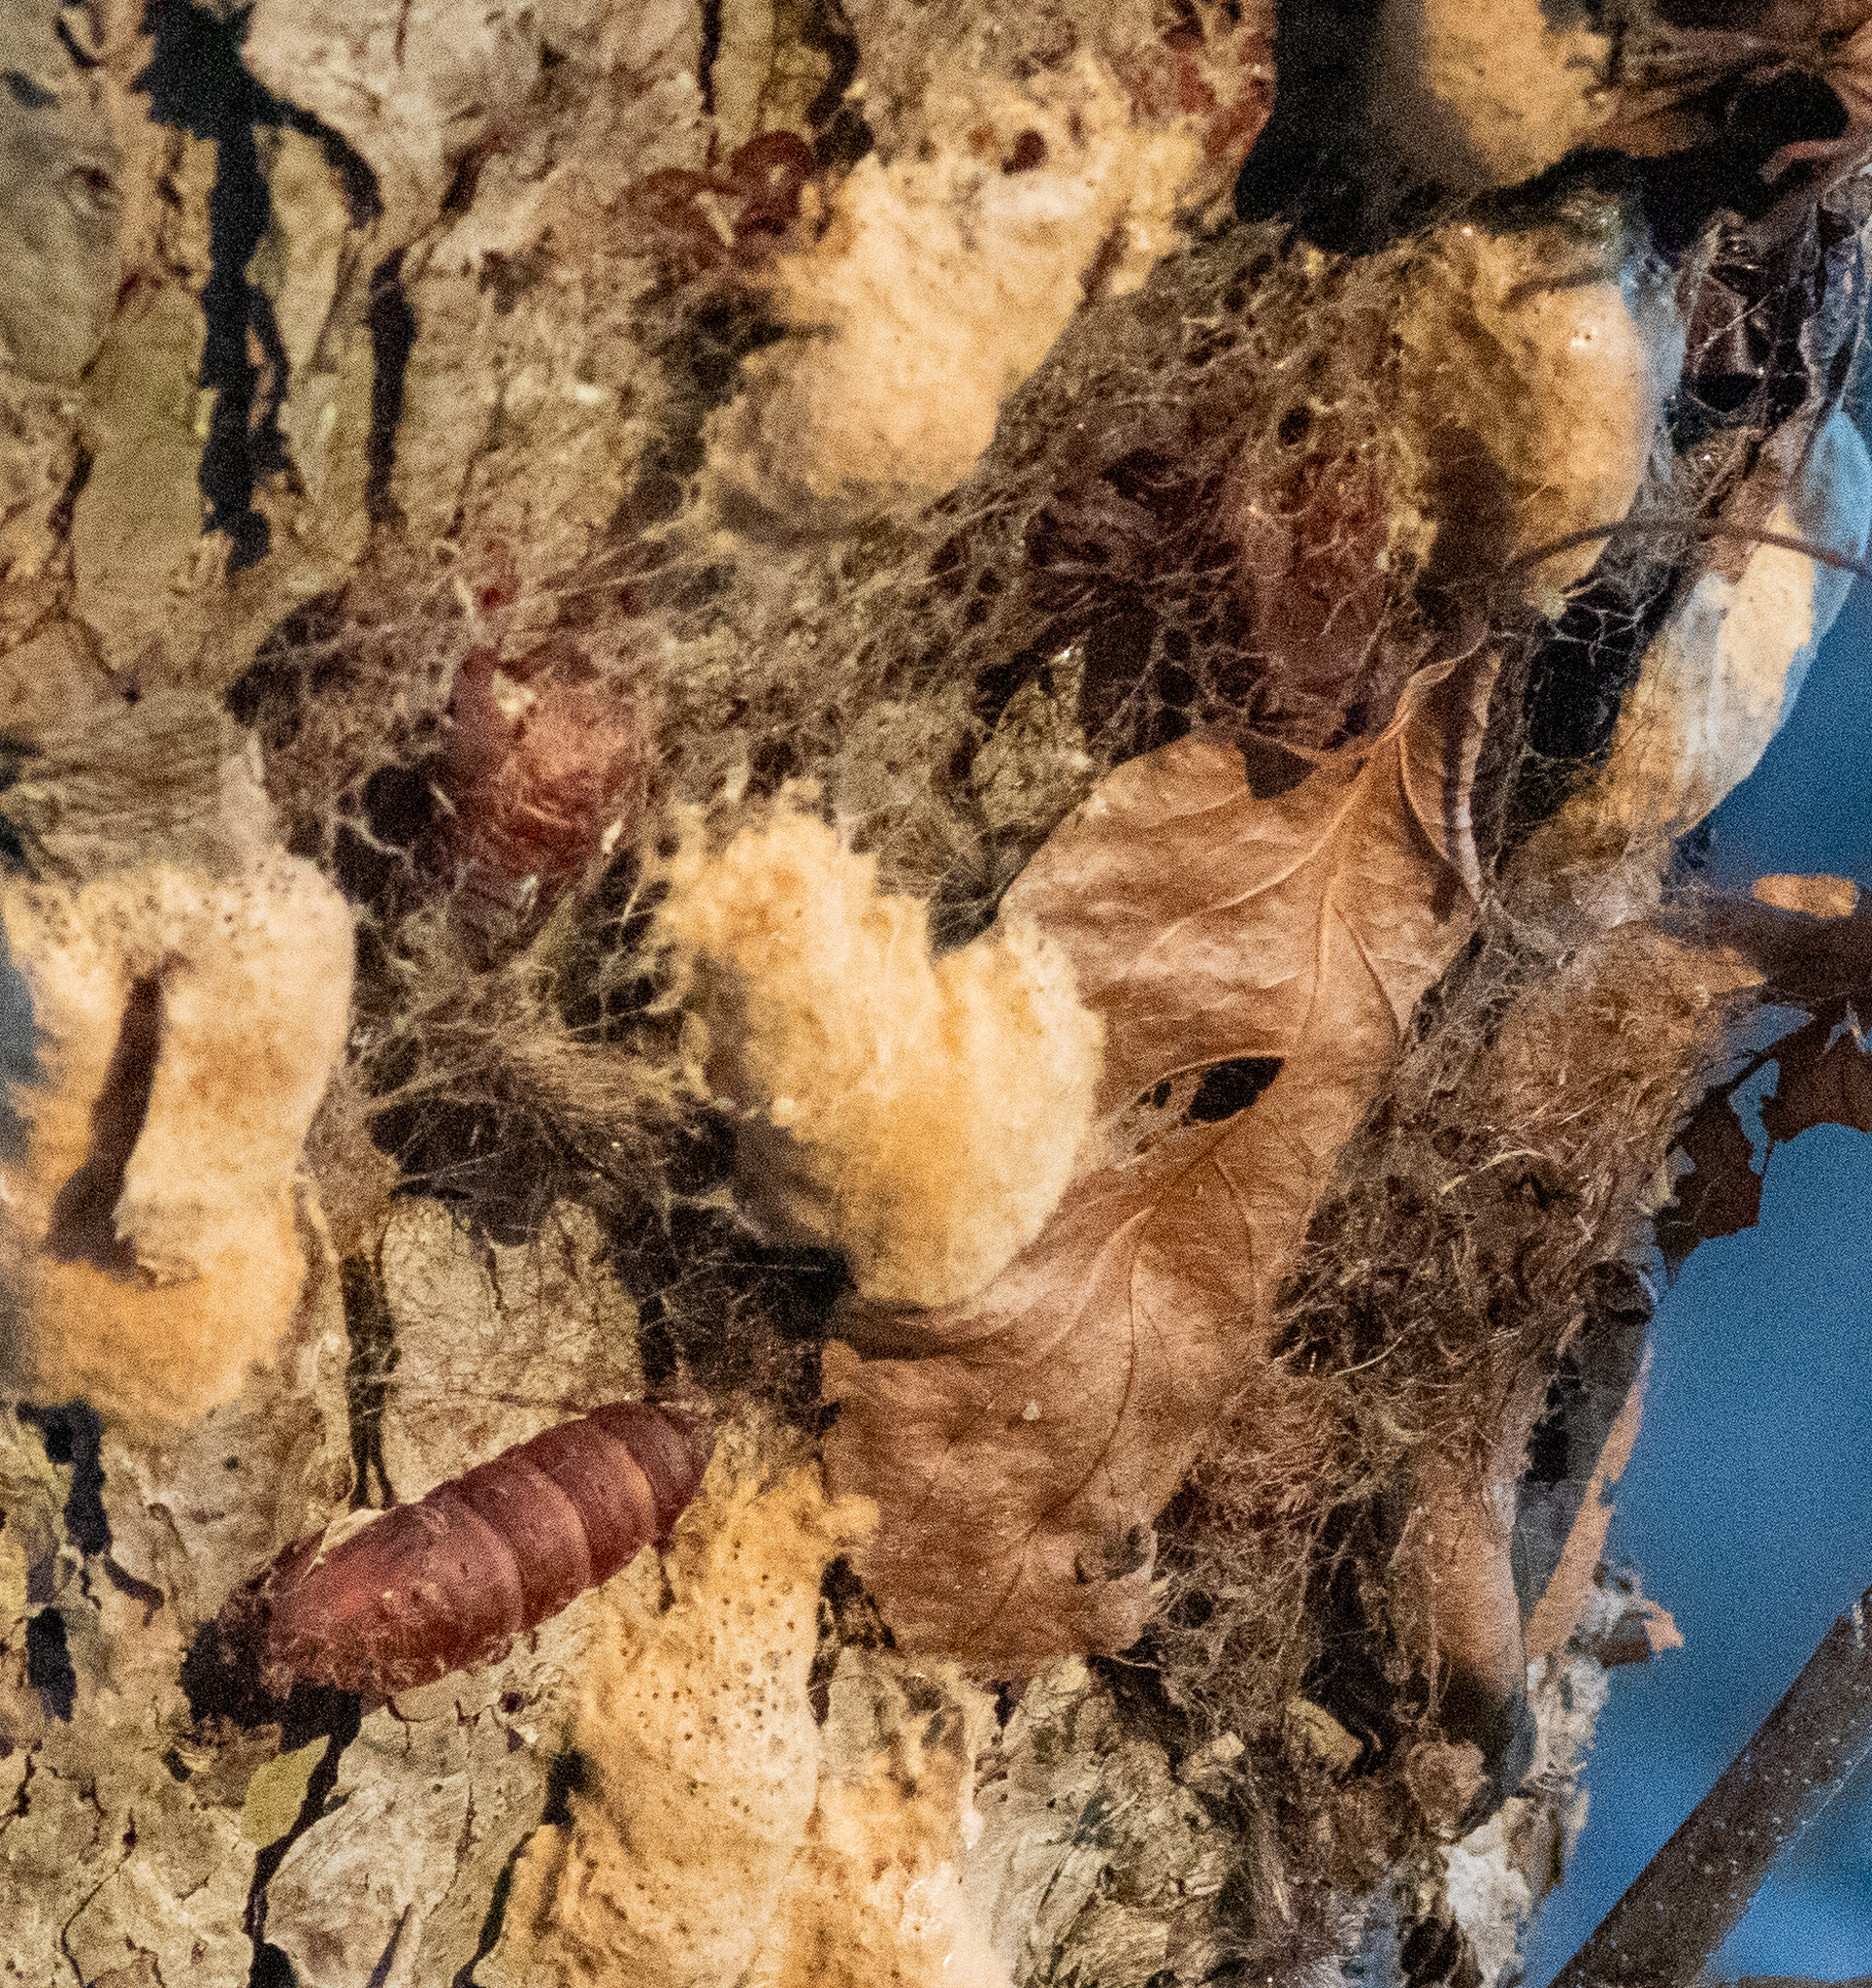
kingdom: Animalia
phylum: Arthropoda
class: Insecta
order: Lepidoptera
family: Erebidae
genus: Lymantria
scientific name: Lymantria dispar
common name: Gypsy moth
